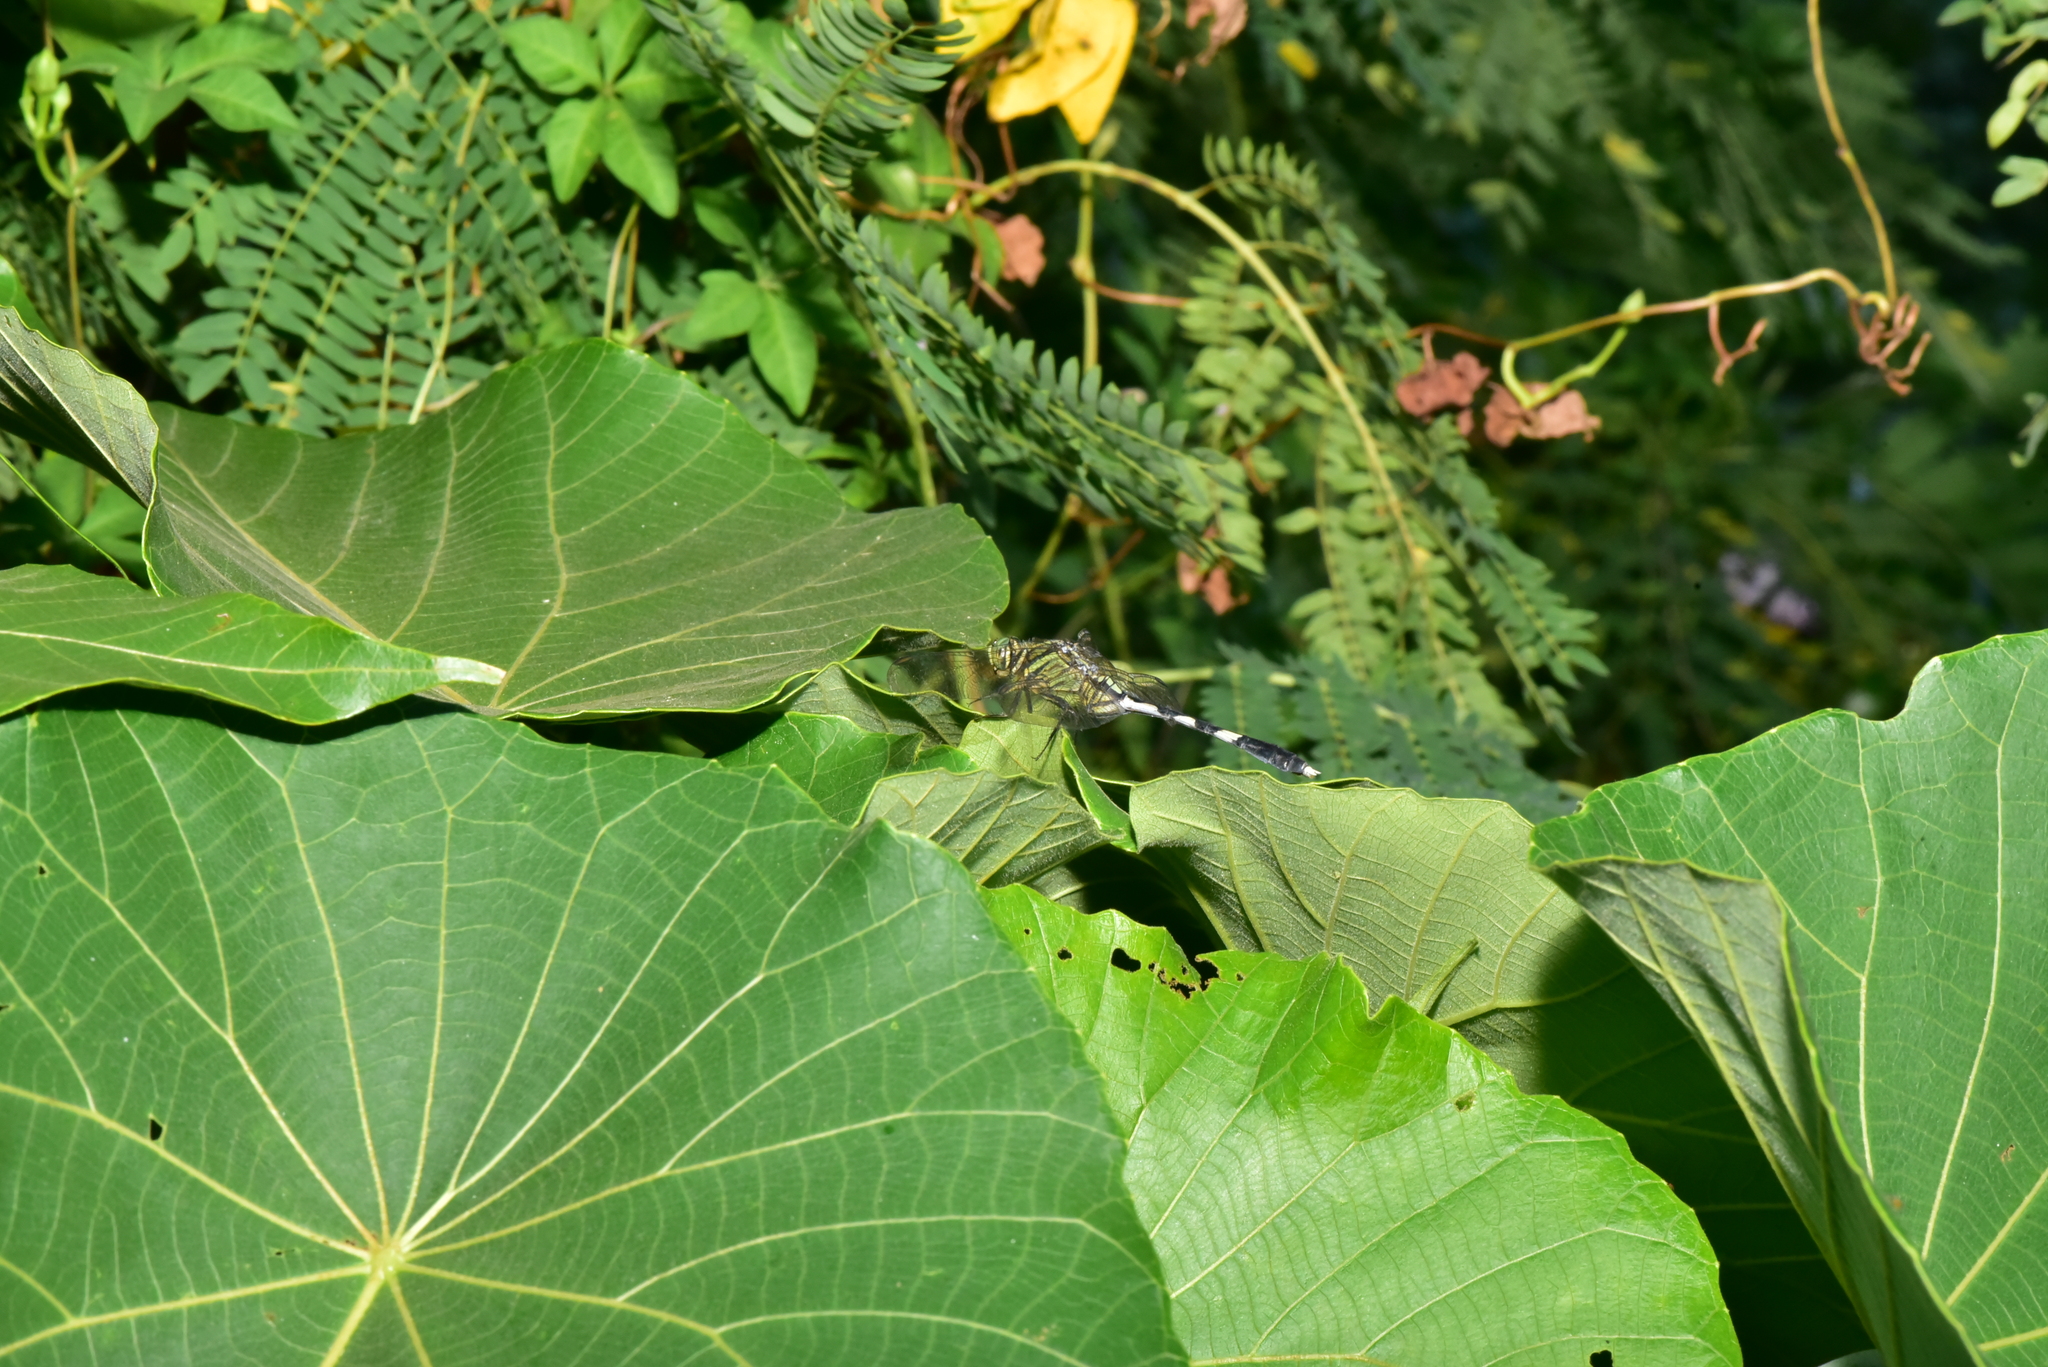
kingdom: Animalia
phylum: Arthropoda
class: Insecta
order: Odonata
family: Libellulidae
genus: Orthetrum
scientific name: Orthetrum sabina
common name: Slender skimmer
